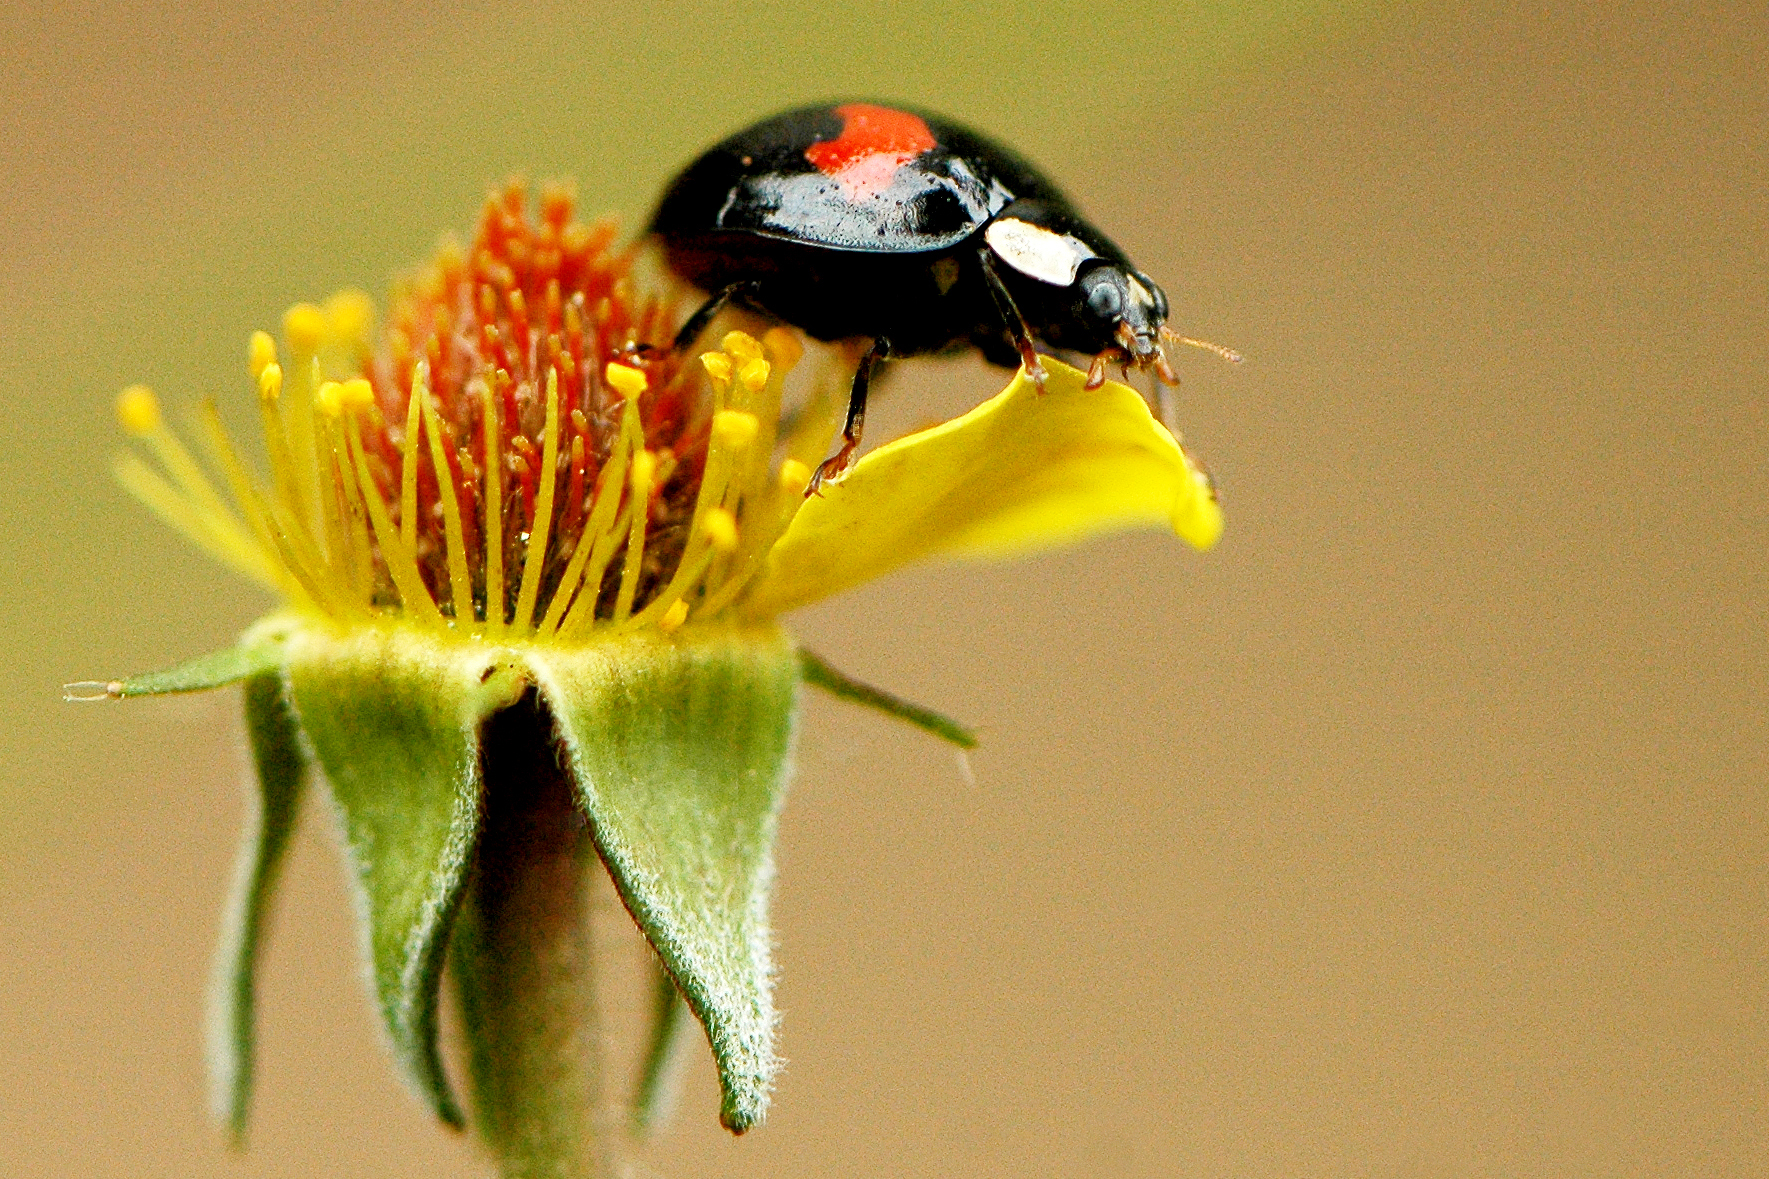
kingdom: Animalia
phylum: Arthropoda
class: Insecta
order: Coleoptera
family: Coccinellidae
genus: Harmonia
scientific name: Harmonia axyridis
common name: Harlequin ladybird
